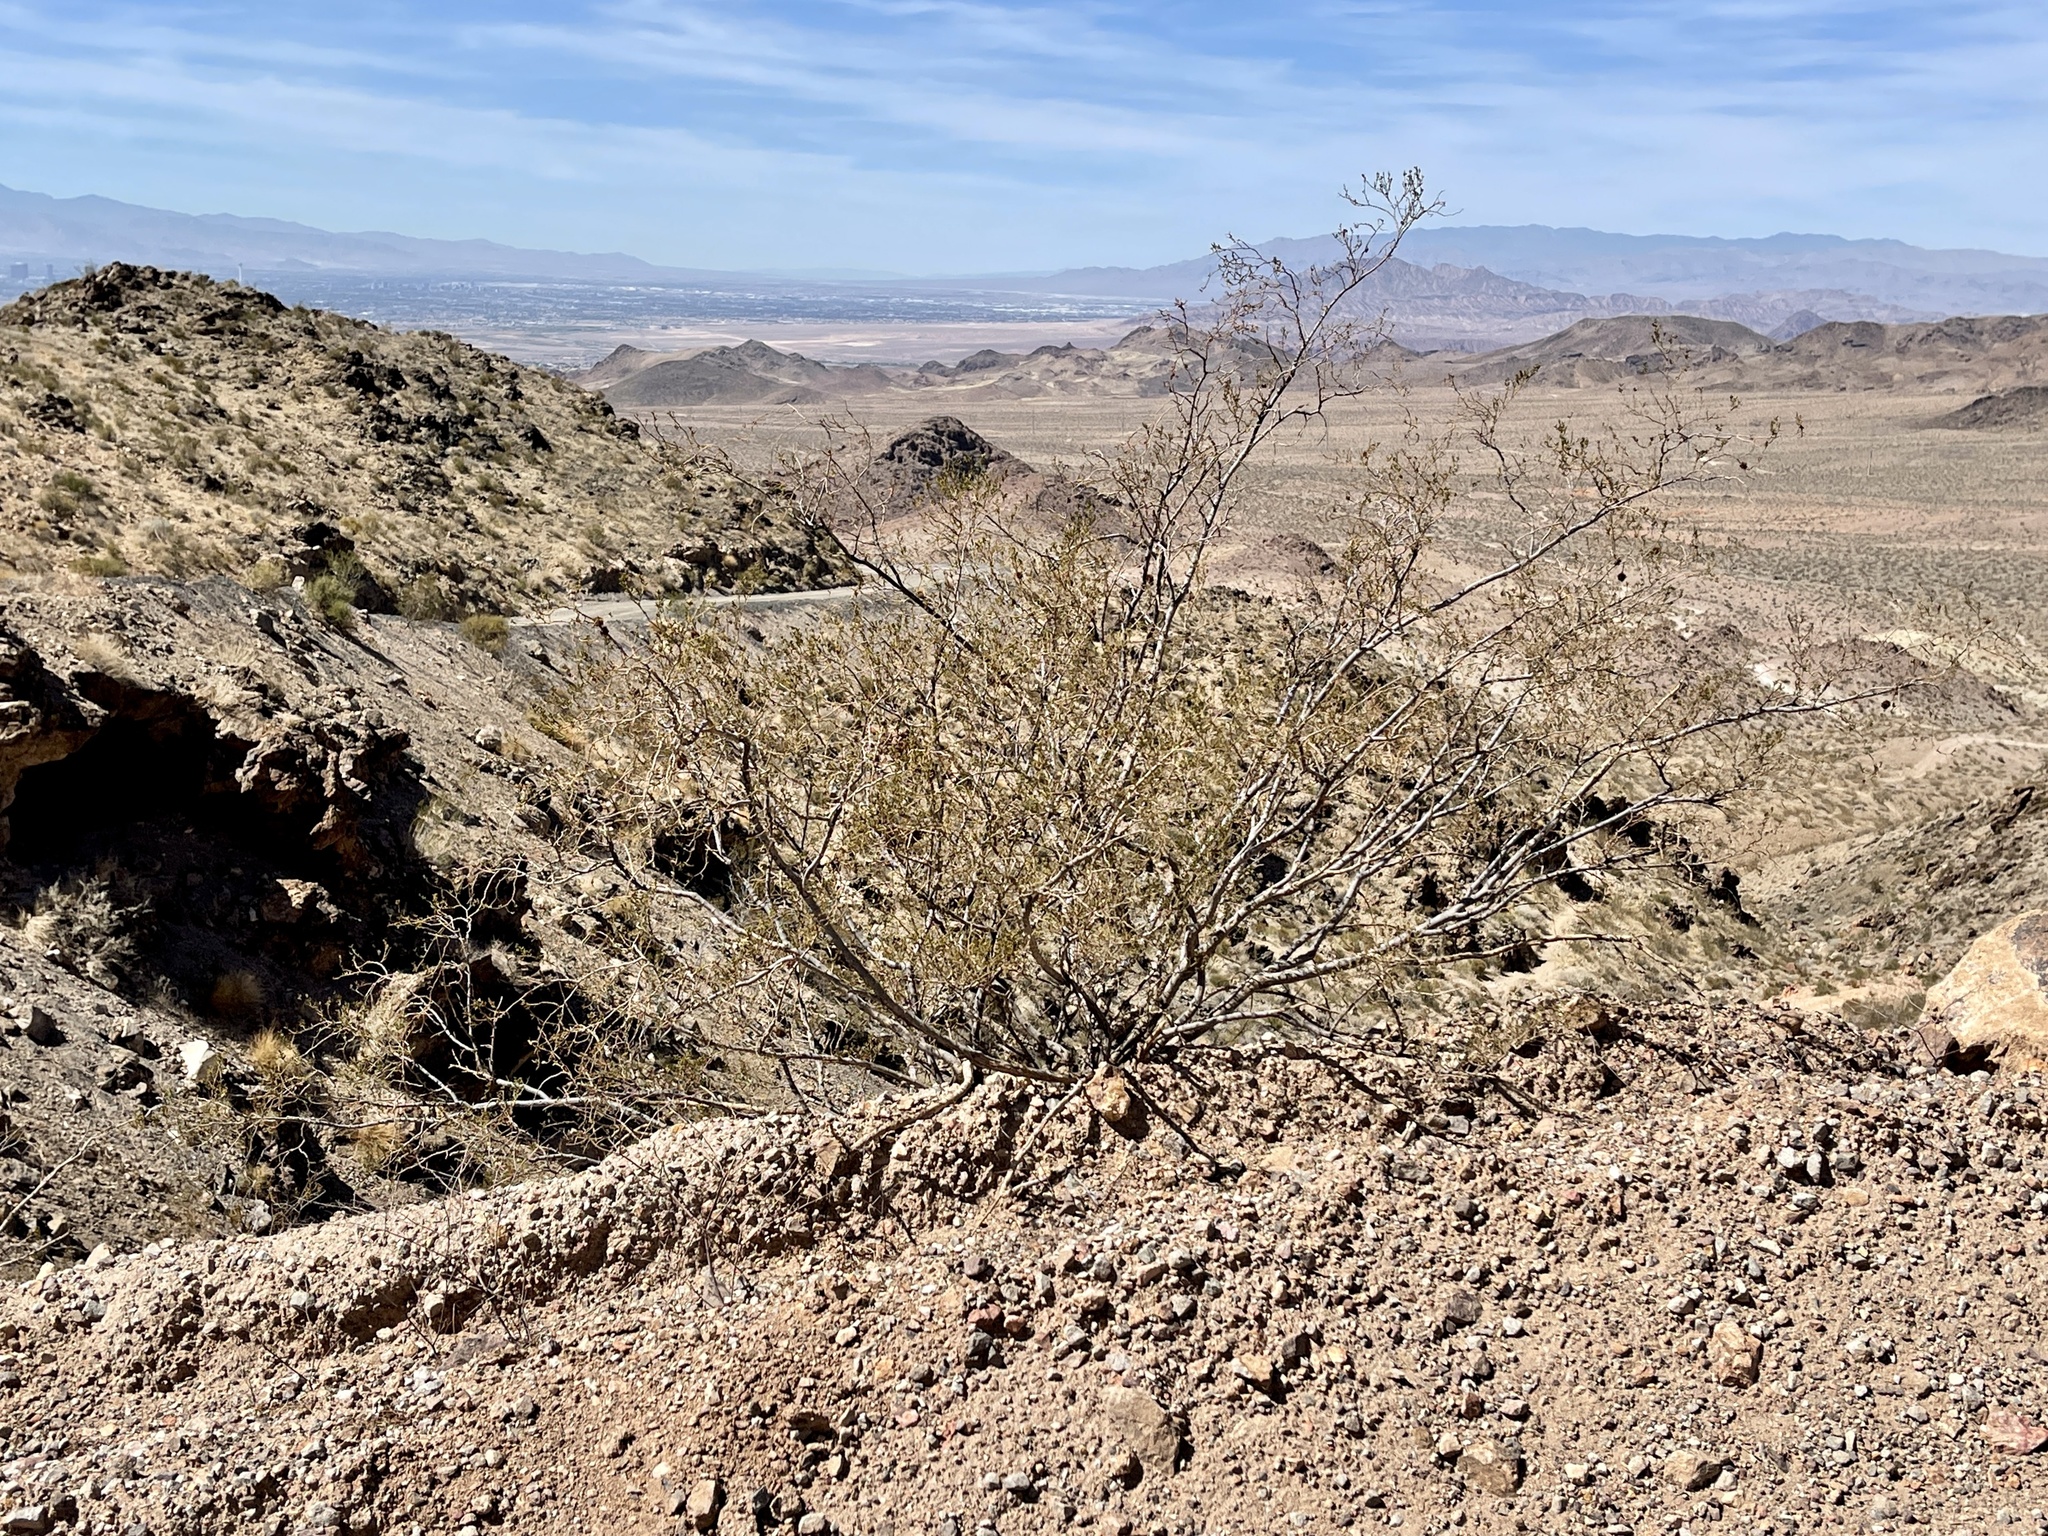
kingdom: Plantae
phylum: Tracheophyta
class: Magnoliopsida
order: Zygophyllales
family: Zygophyllaceae
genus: Larrea
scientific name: Larrea tridentata
